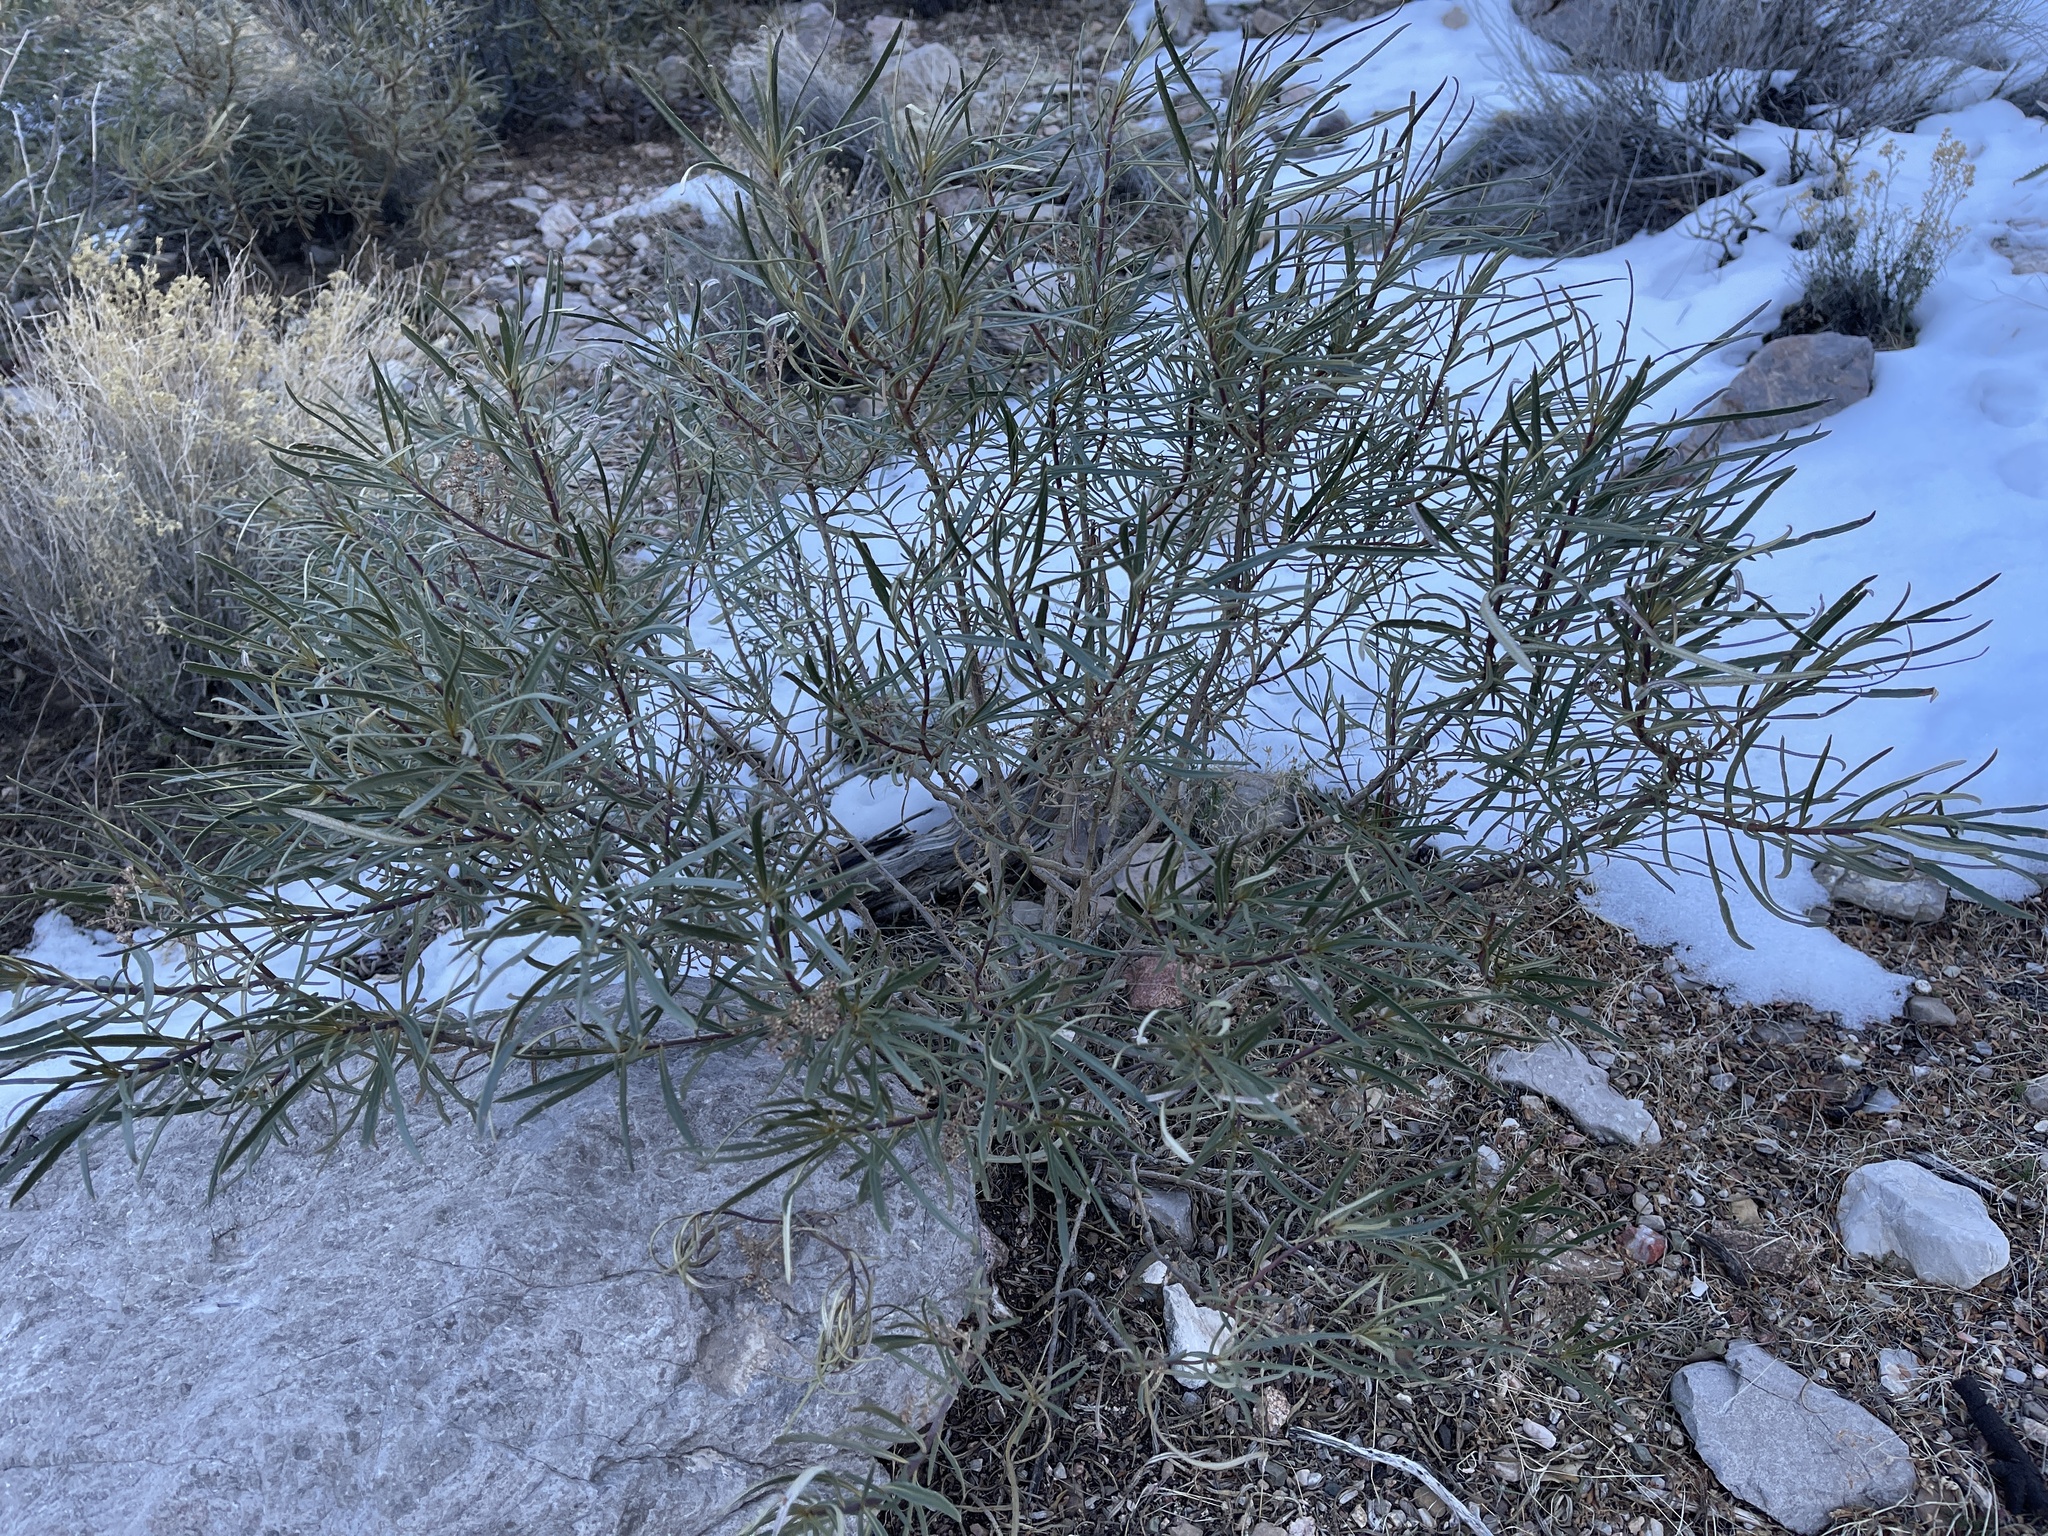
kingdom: Plantae
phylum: Tracheophyta
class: Magnoliopsida
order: Boraginales
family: Namaceae
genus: Eriodictyon
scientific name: Eriodictyon angustifolium
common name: Narrow-leaf yerba santa
